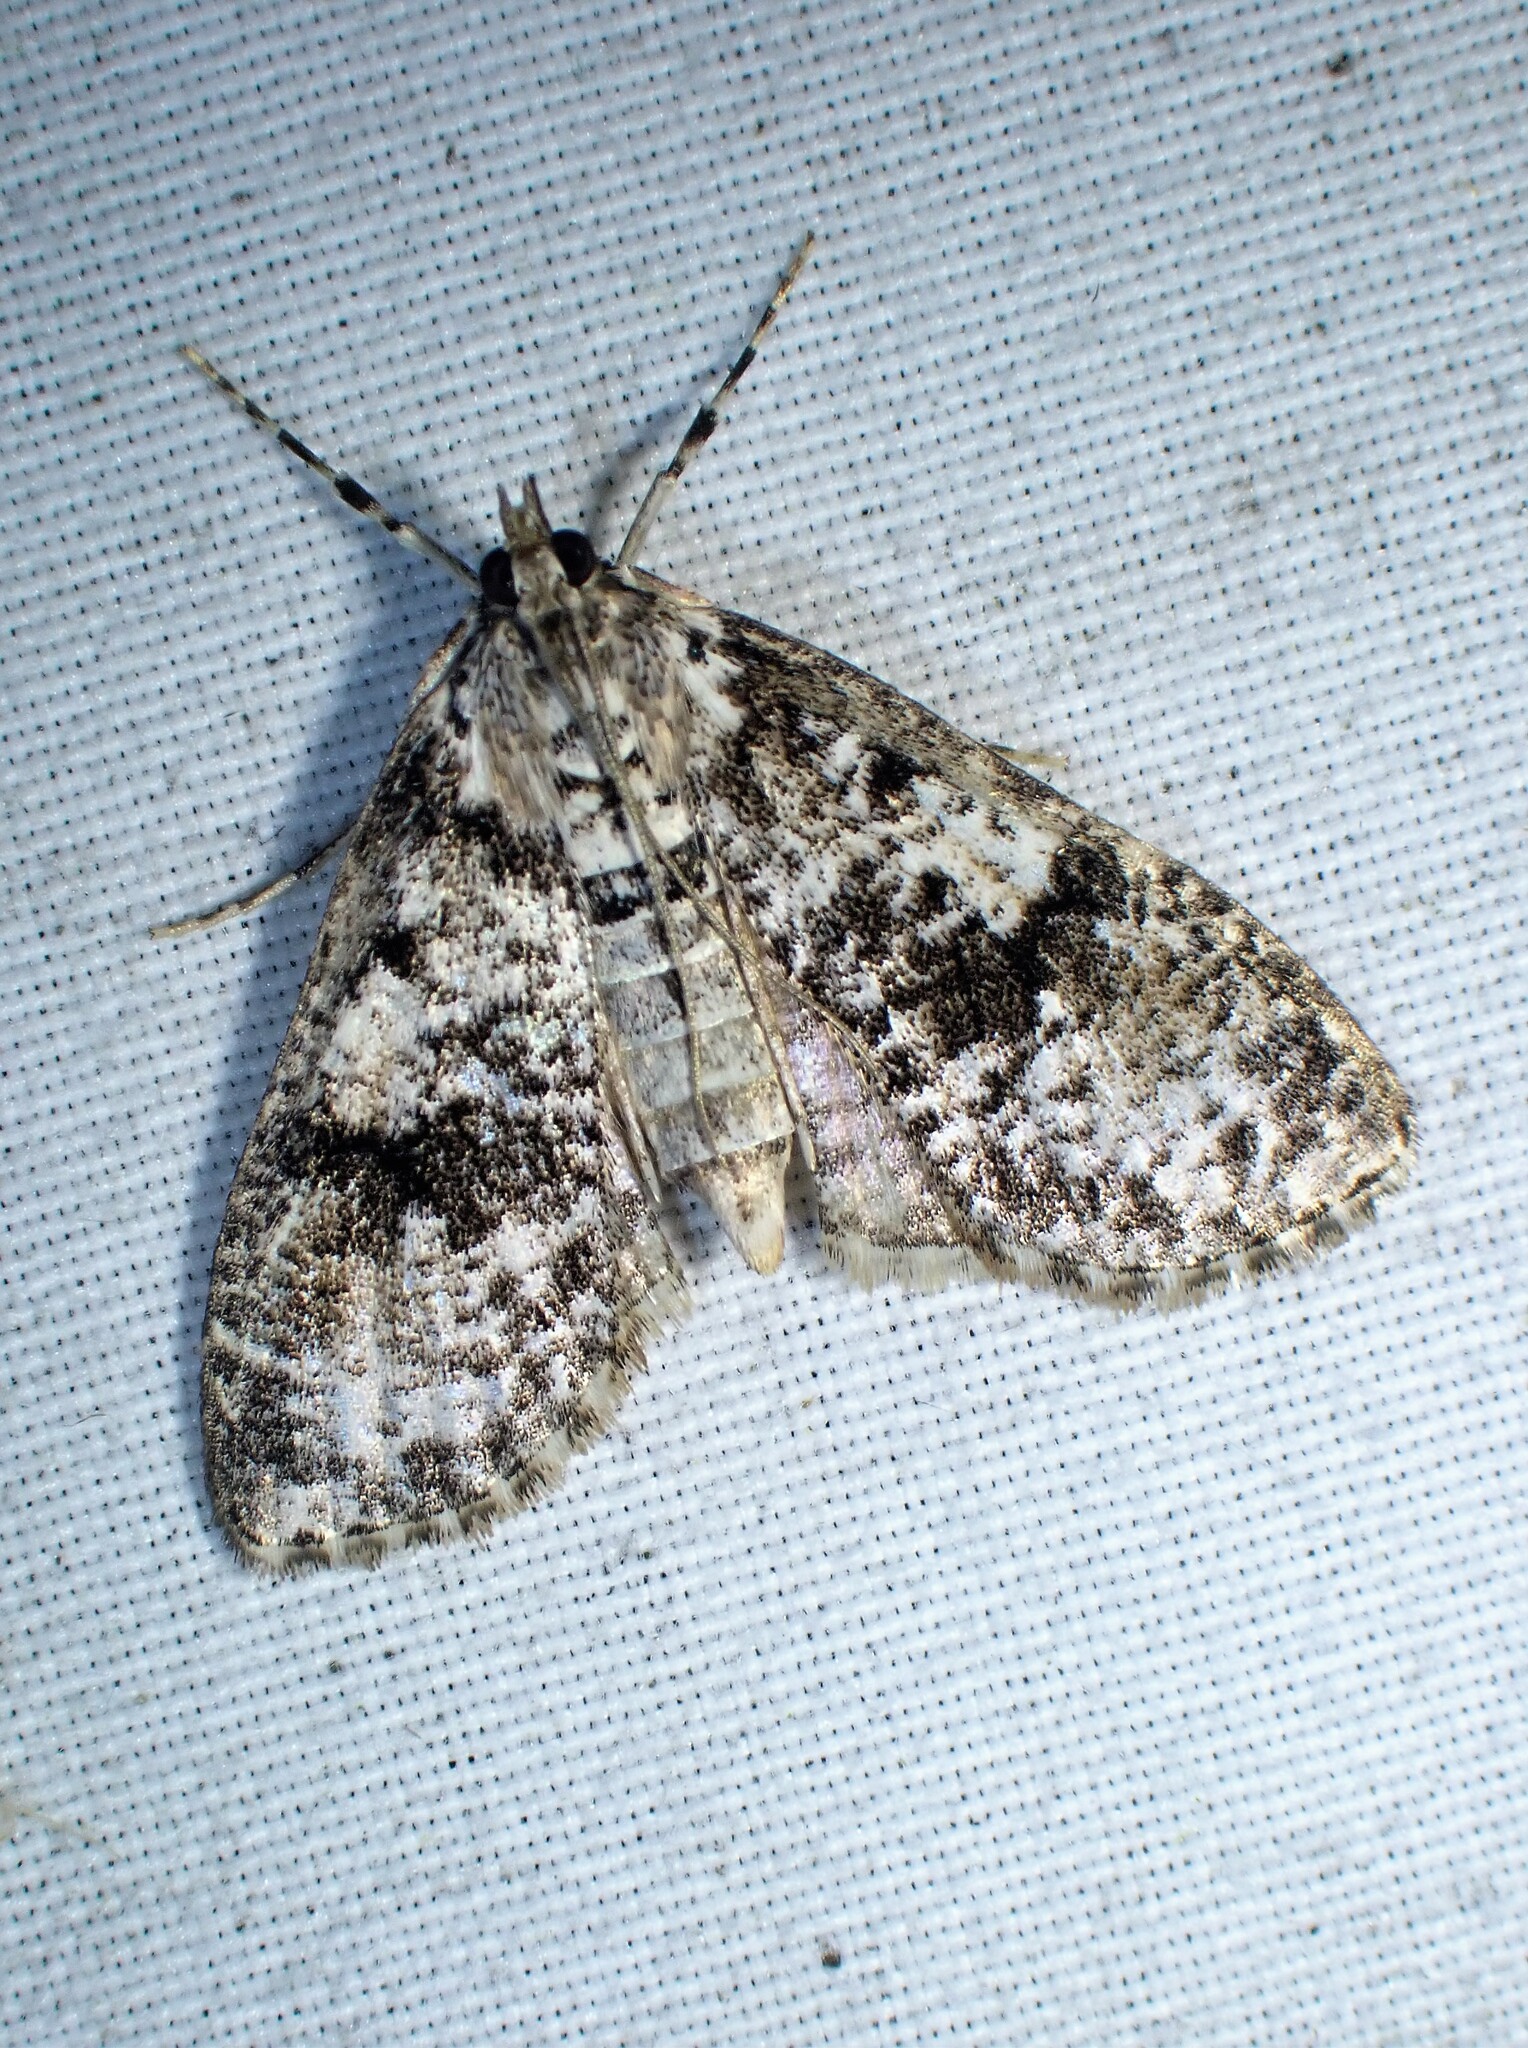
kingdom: Animalia
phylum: Arthropoda
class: Insecta
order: Lepidoptera
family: Crambidae
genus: Palpita
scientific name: Palpita magniferalis
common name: Splendid palpita moth
